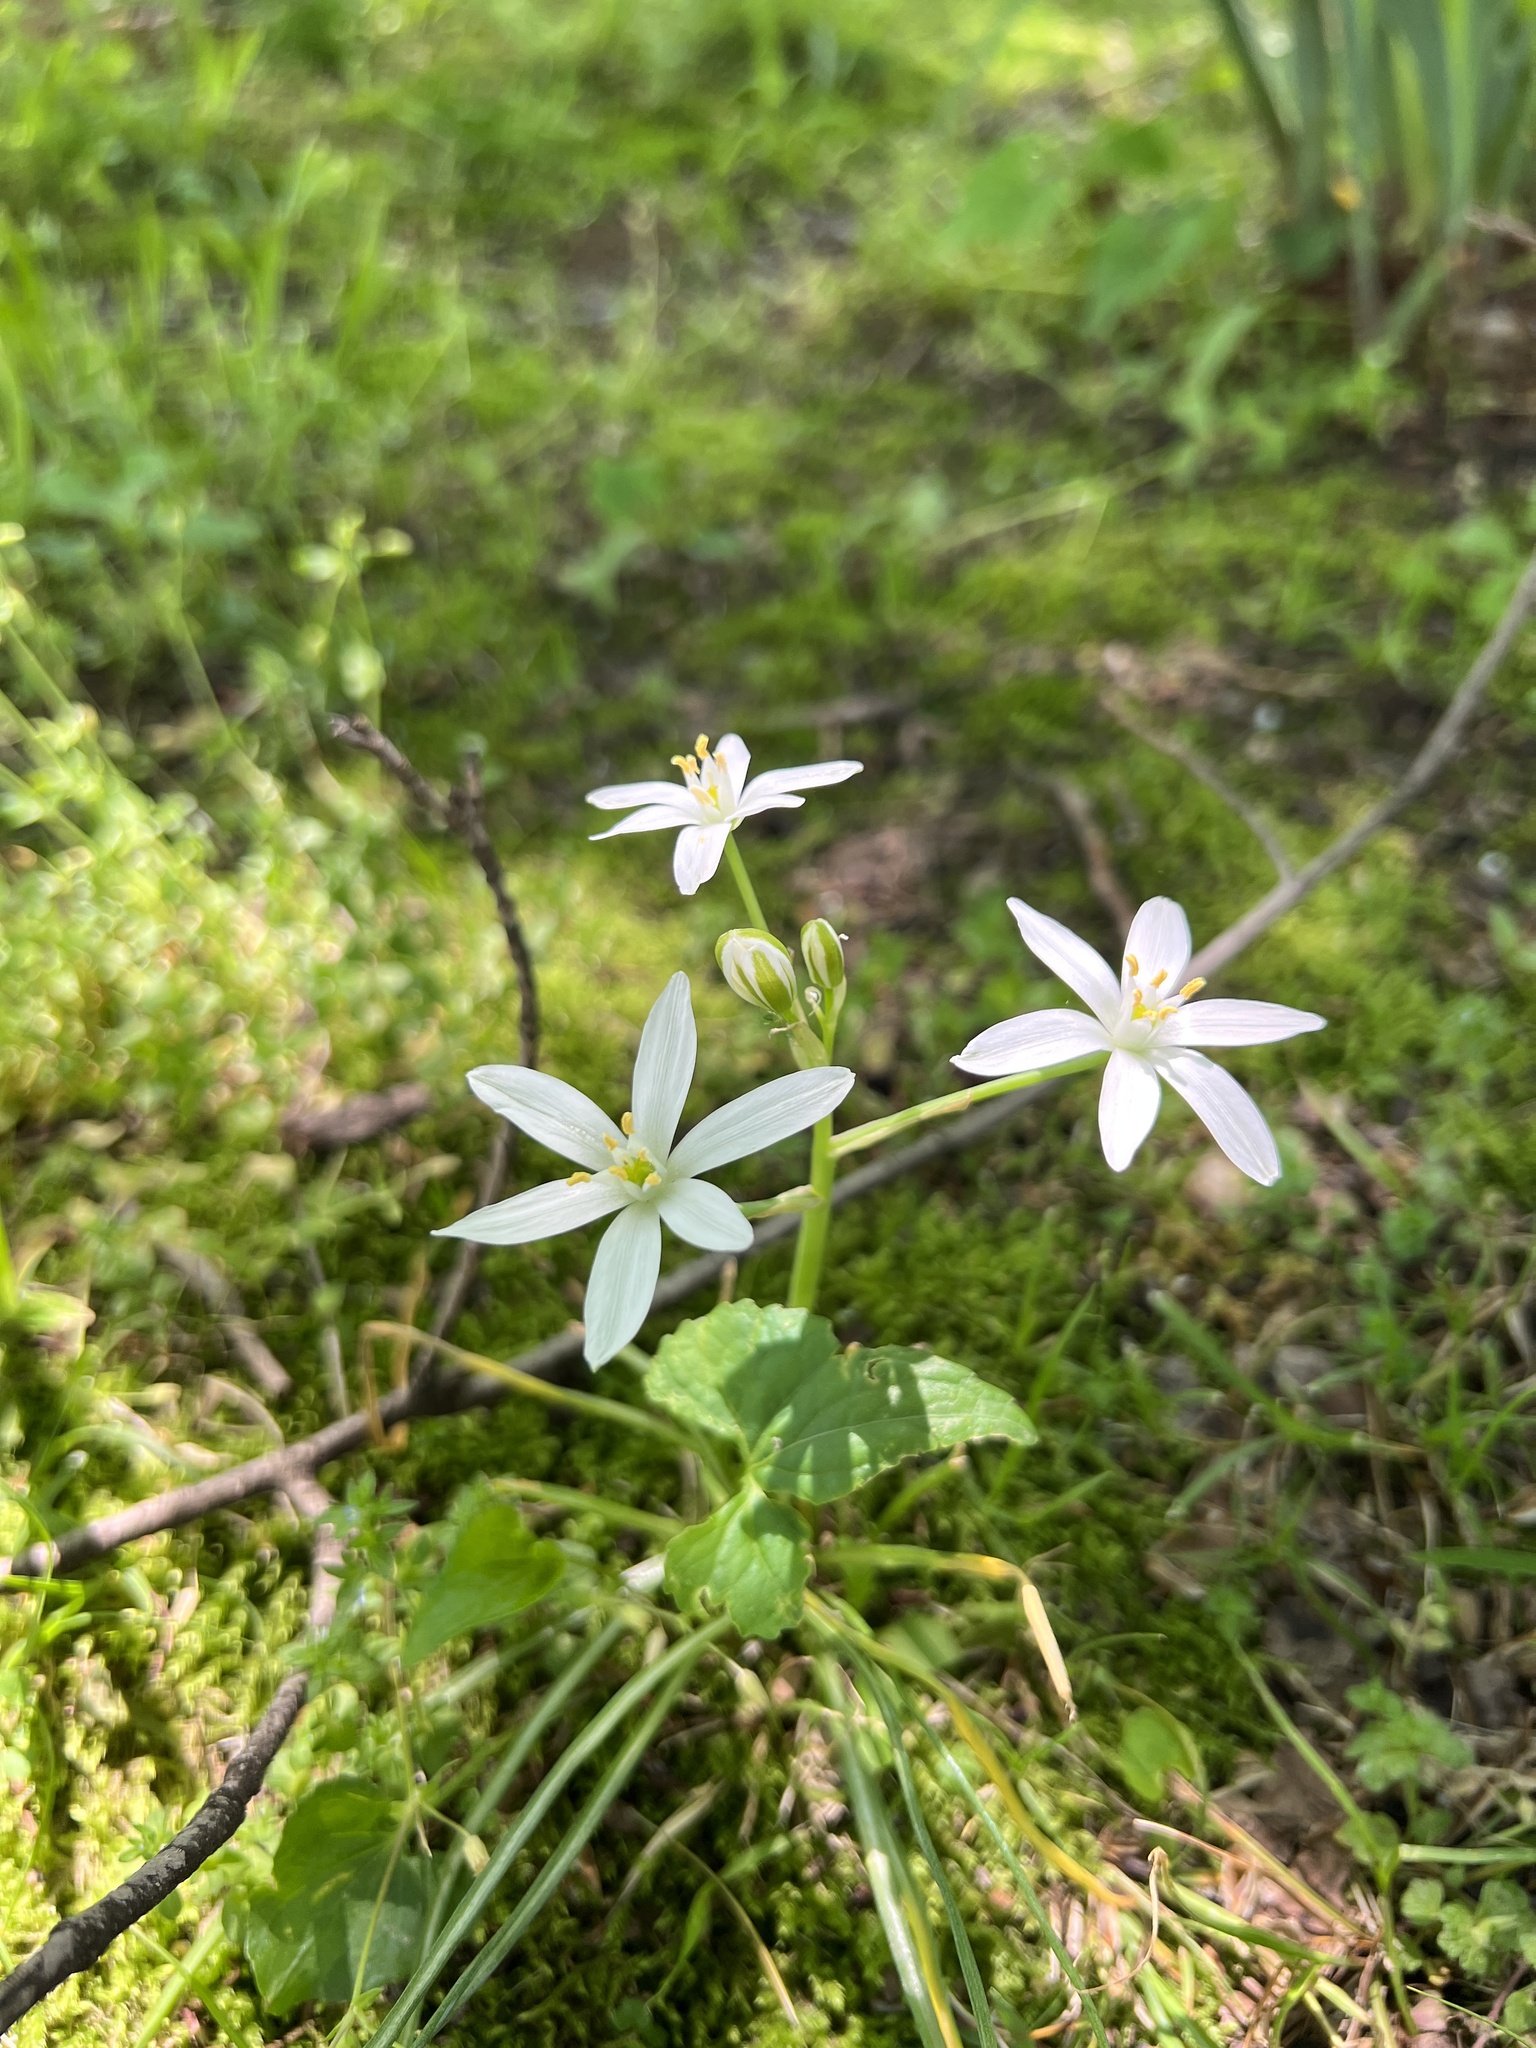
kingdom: Plantae
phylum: Tracheophyta
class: Liliopsida
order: Asparagales
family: Asparagaceae
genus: Ornithogalum
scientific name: Ornithogalum umbellatum
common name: Garden star-of-bethlehem
